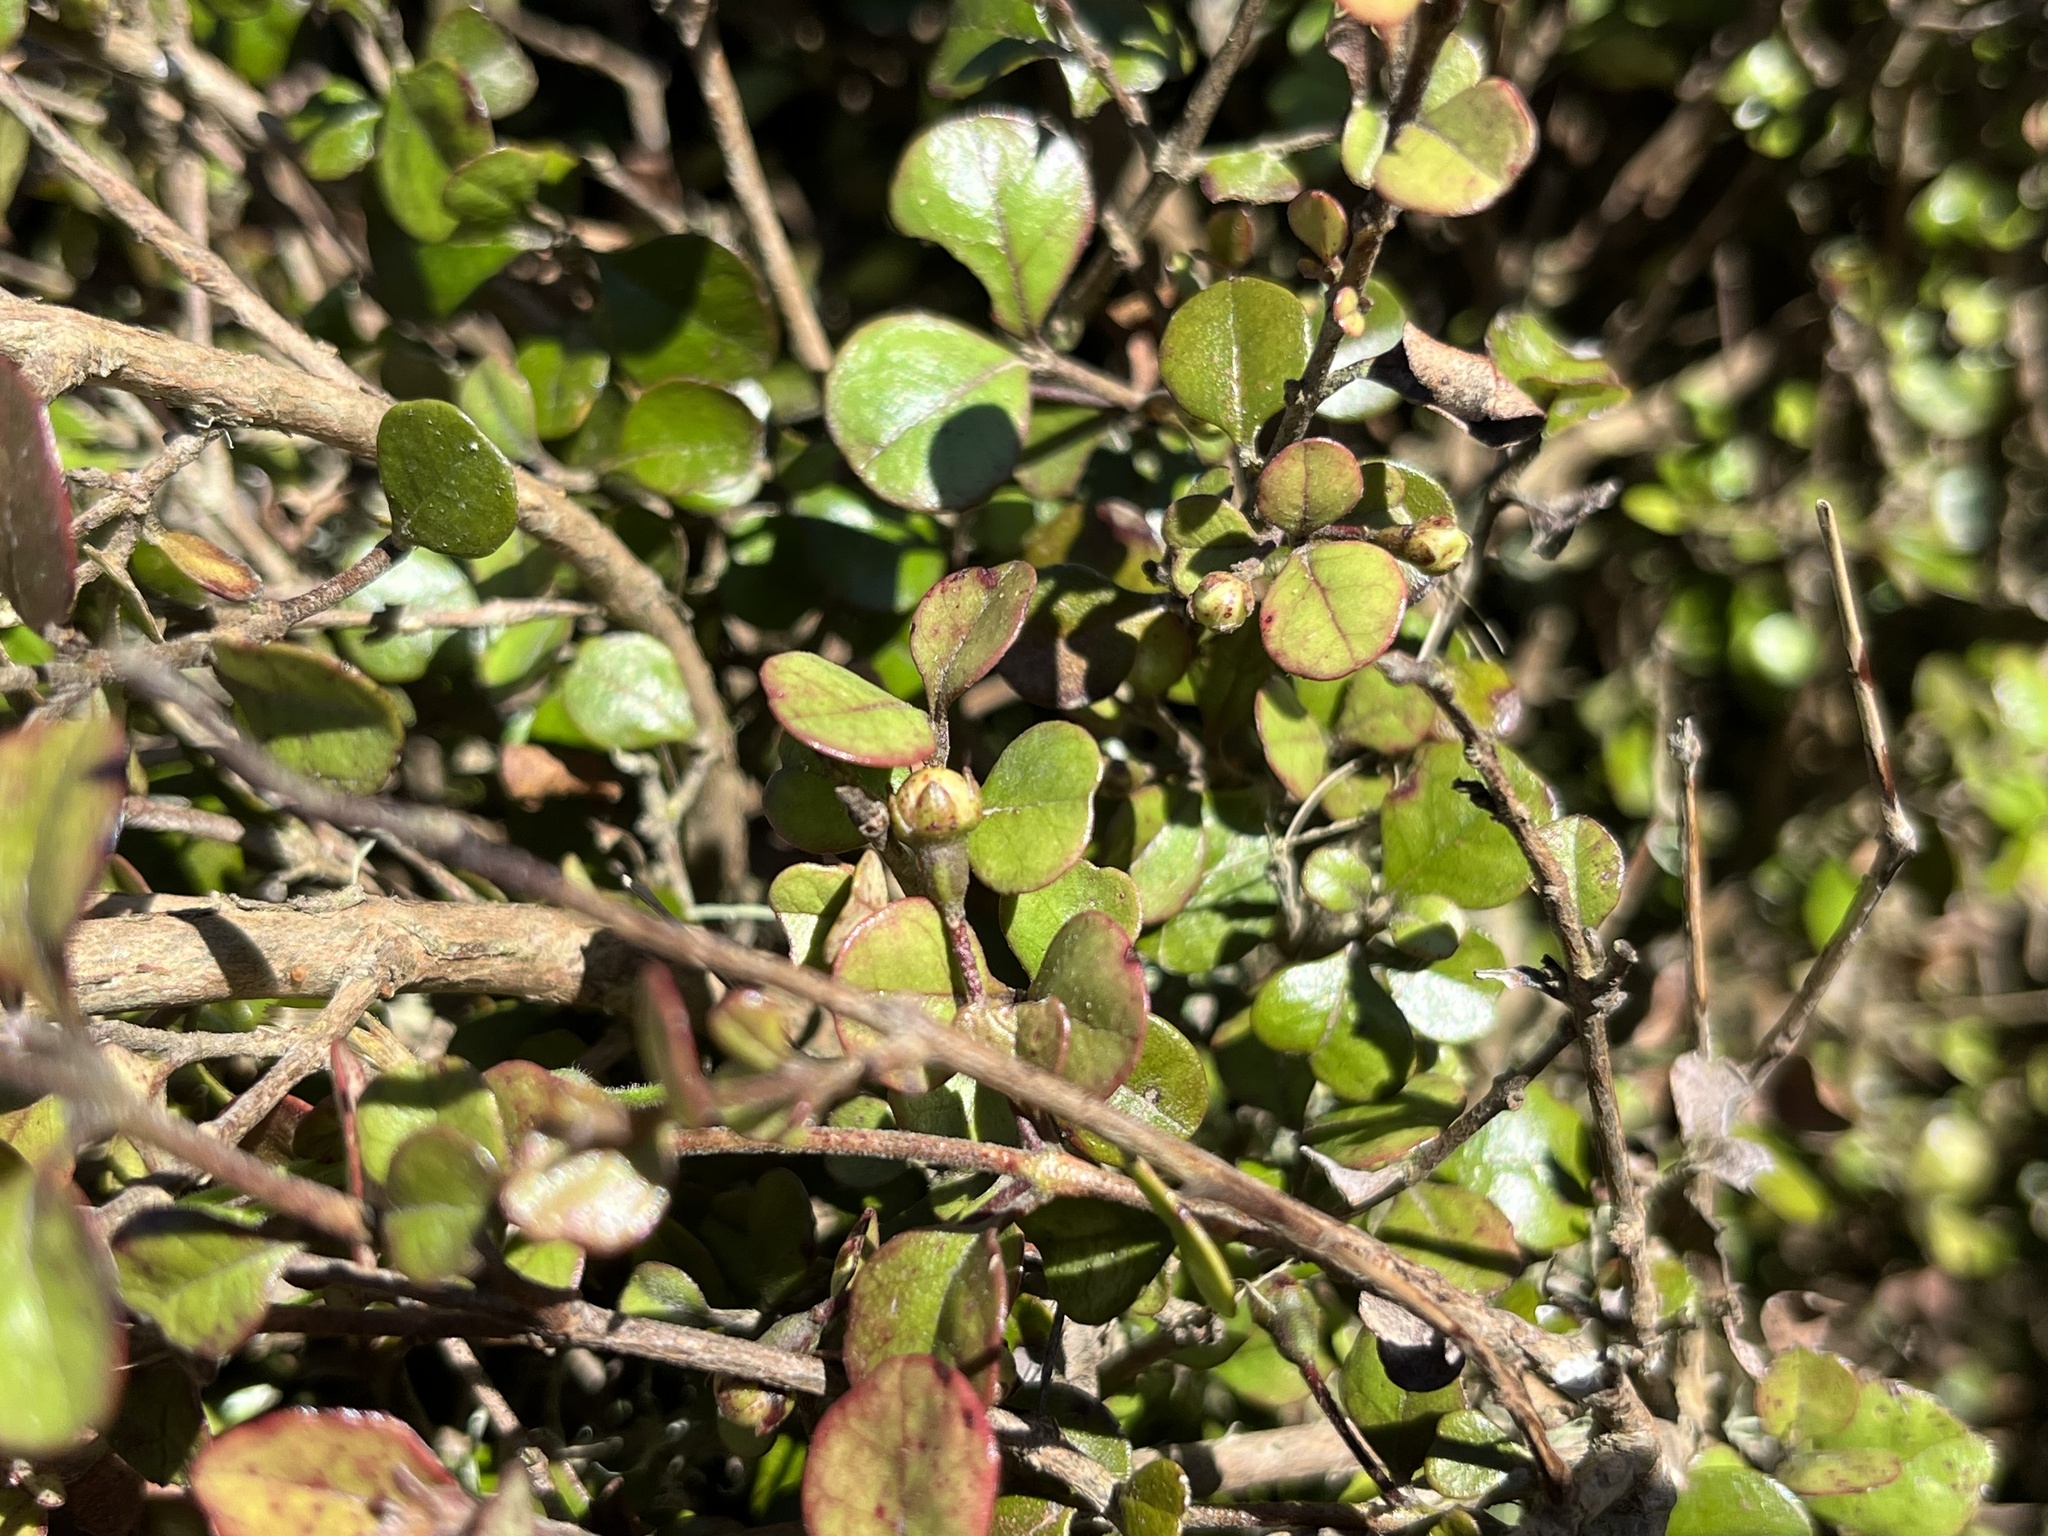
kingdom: Plantae
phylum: Tracheophyta
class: Magnoliopsida
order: Myrtales
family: Myrtaceae
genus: Lophomyrtus
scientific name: Lophomyrtus obcordata
